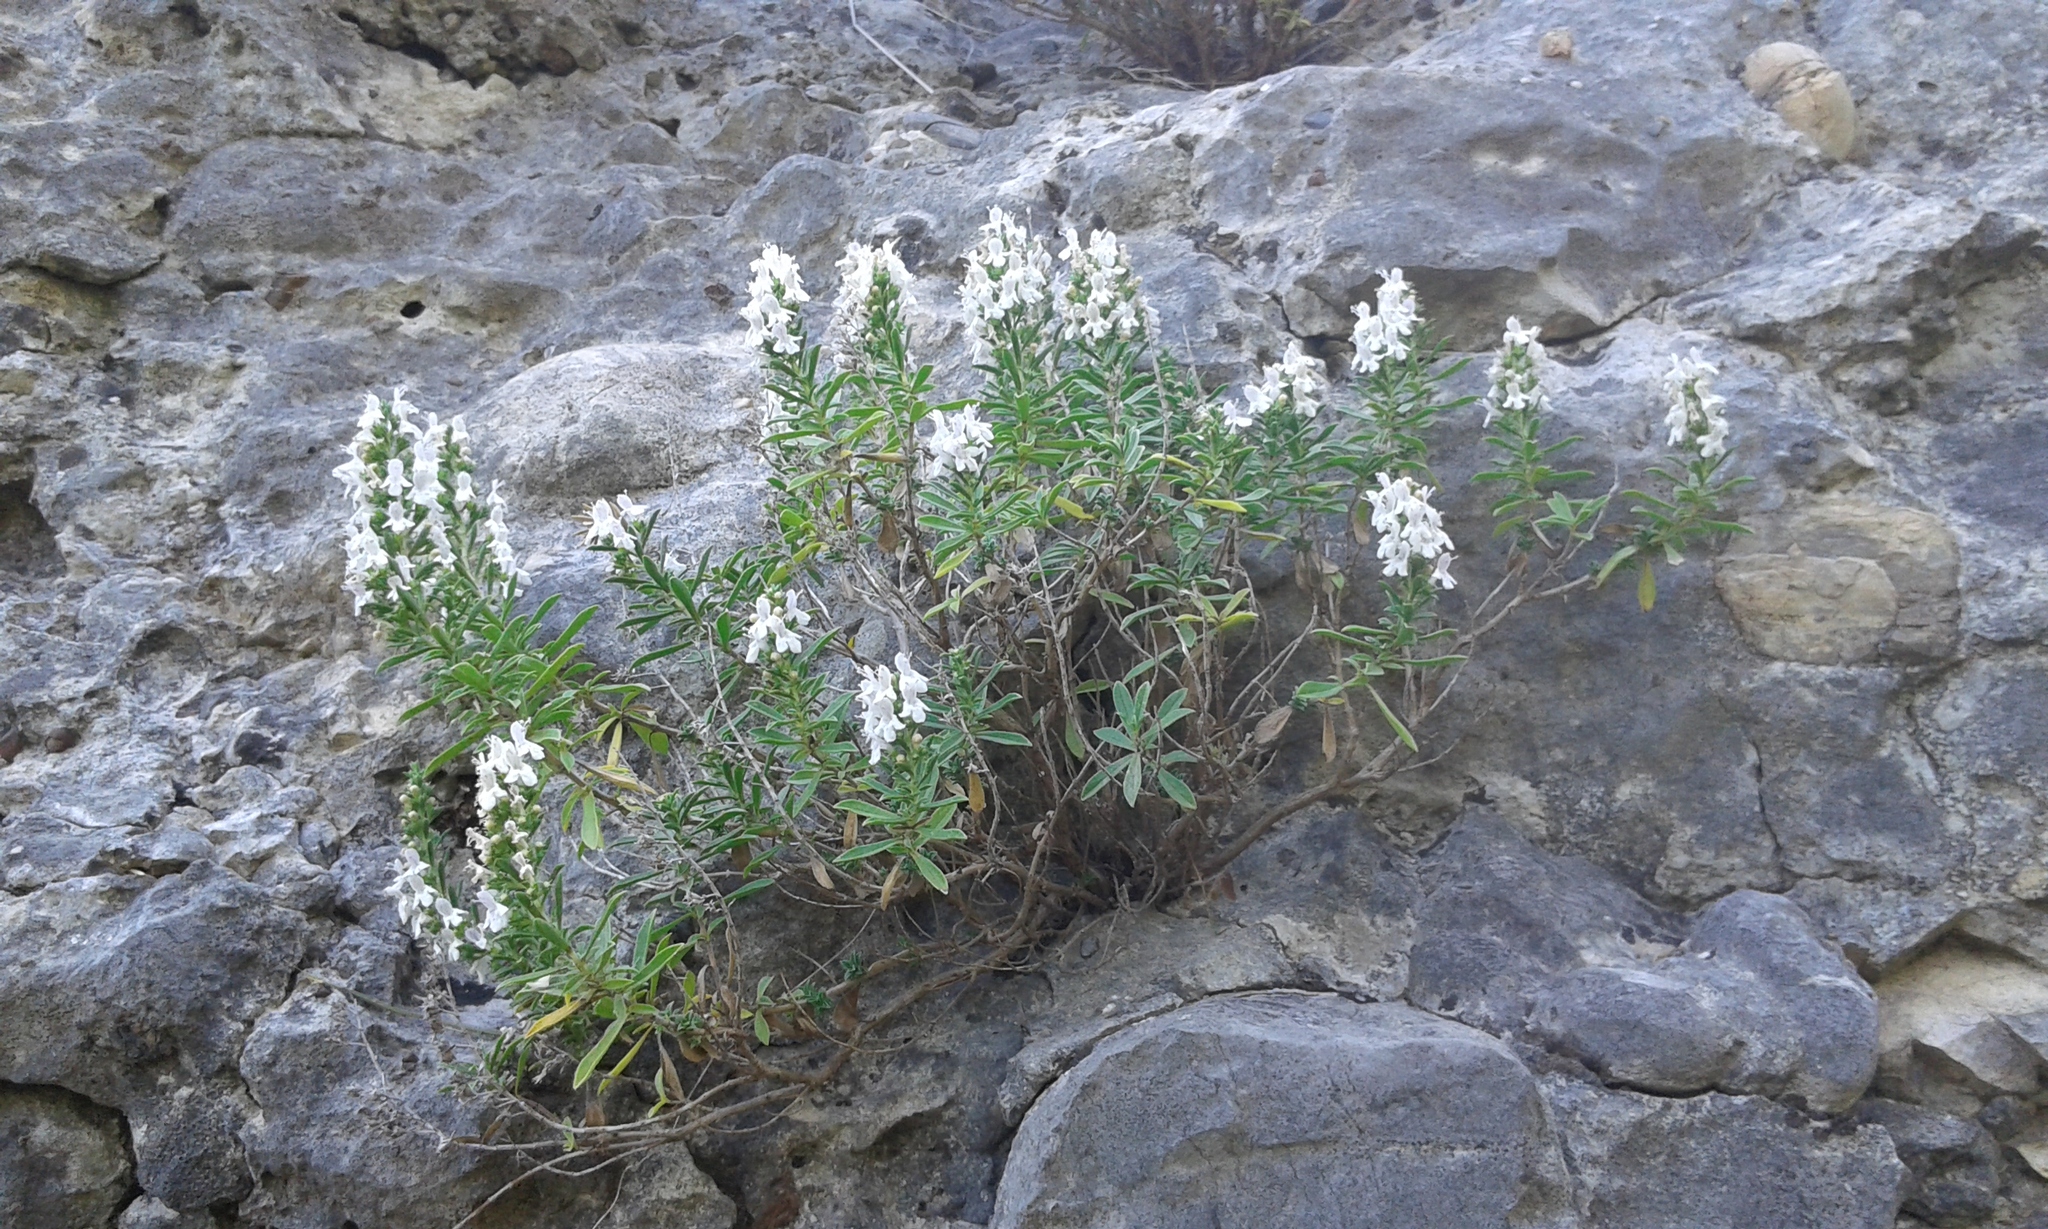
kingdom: Plantae
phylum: Tracheophyta
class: Magnoliopsida
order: Lamiales
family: Lamiaceae
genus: Satureja
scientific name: Satureja montana
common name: Winter savory
